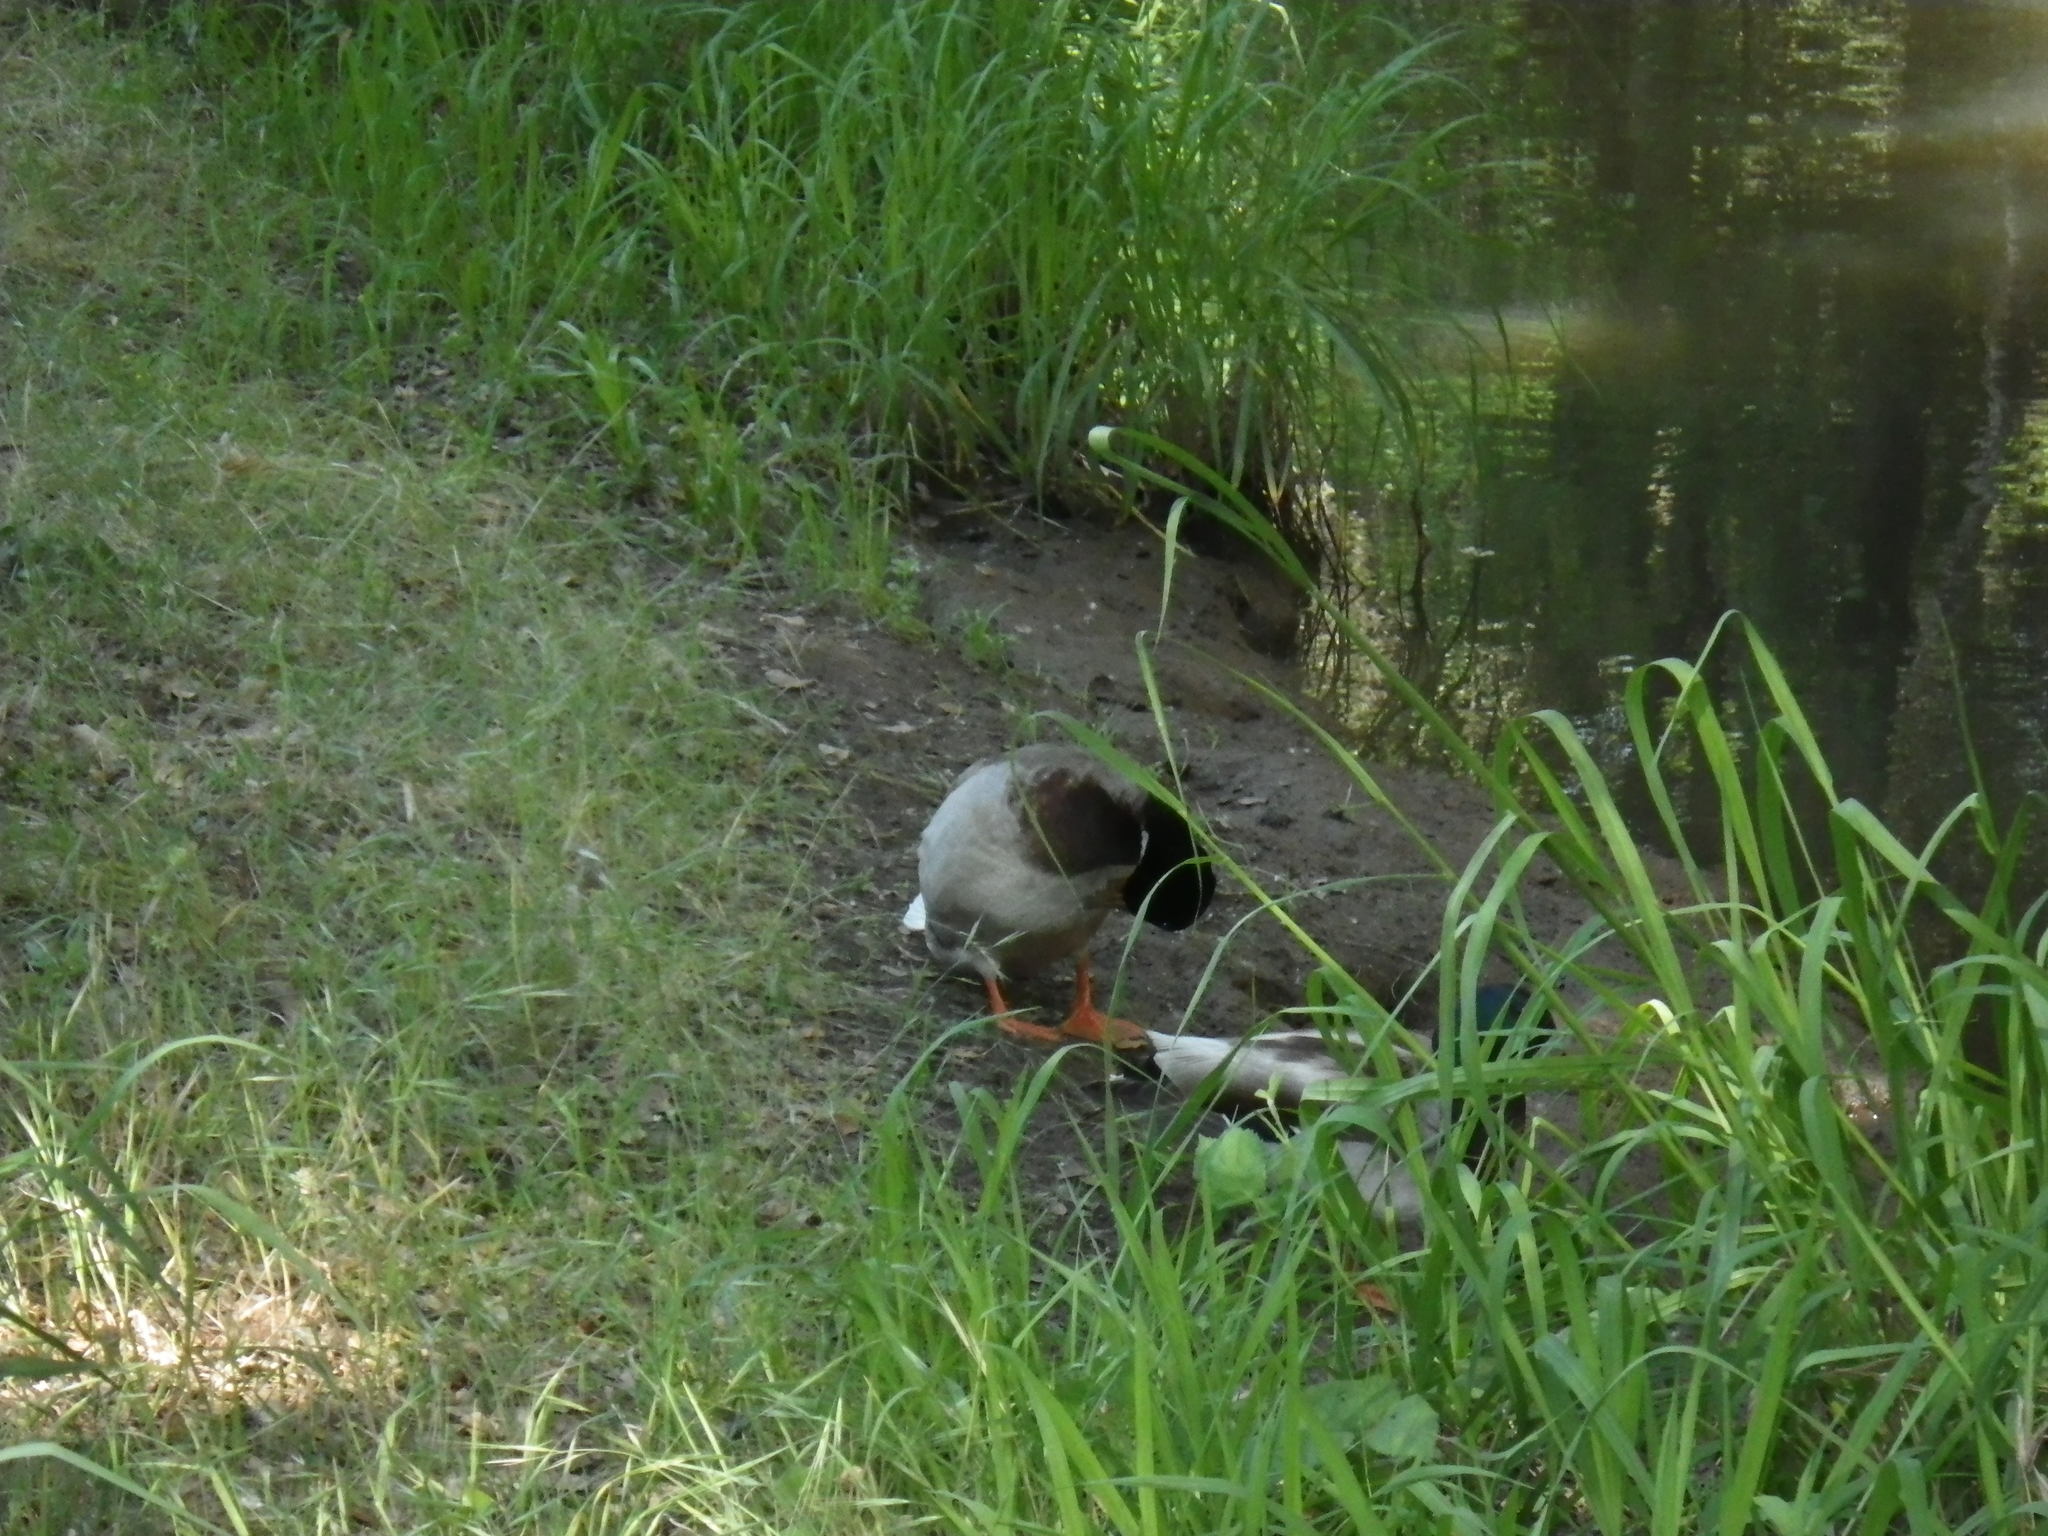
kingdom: Animalia
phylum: Chordata
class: Aves
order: Anseriformes
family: Anatidae
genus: Anas
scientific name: Anas platyrhynchos
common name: Mallard
